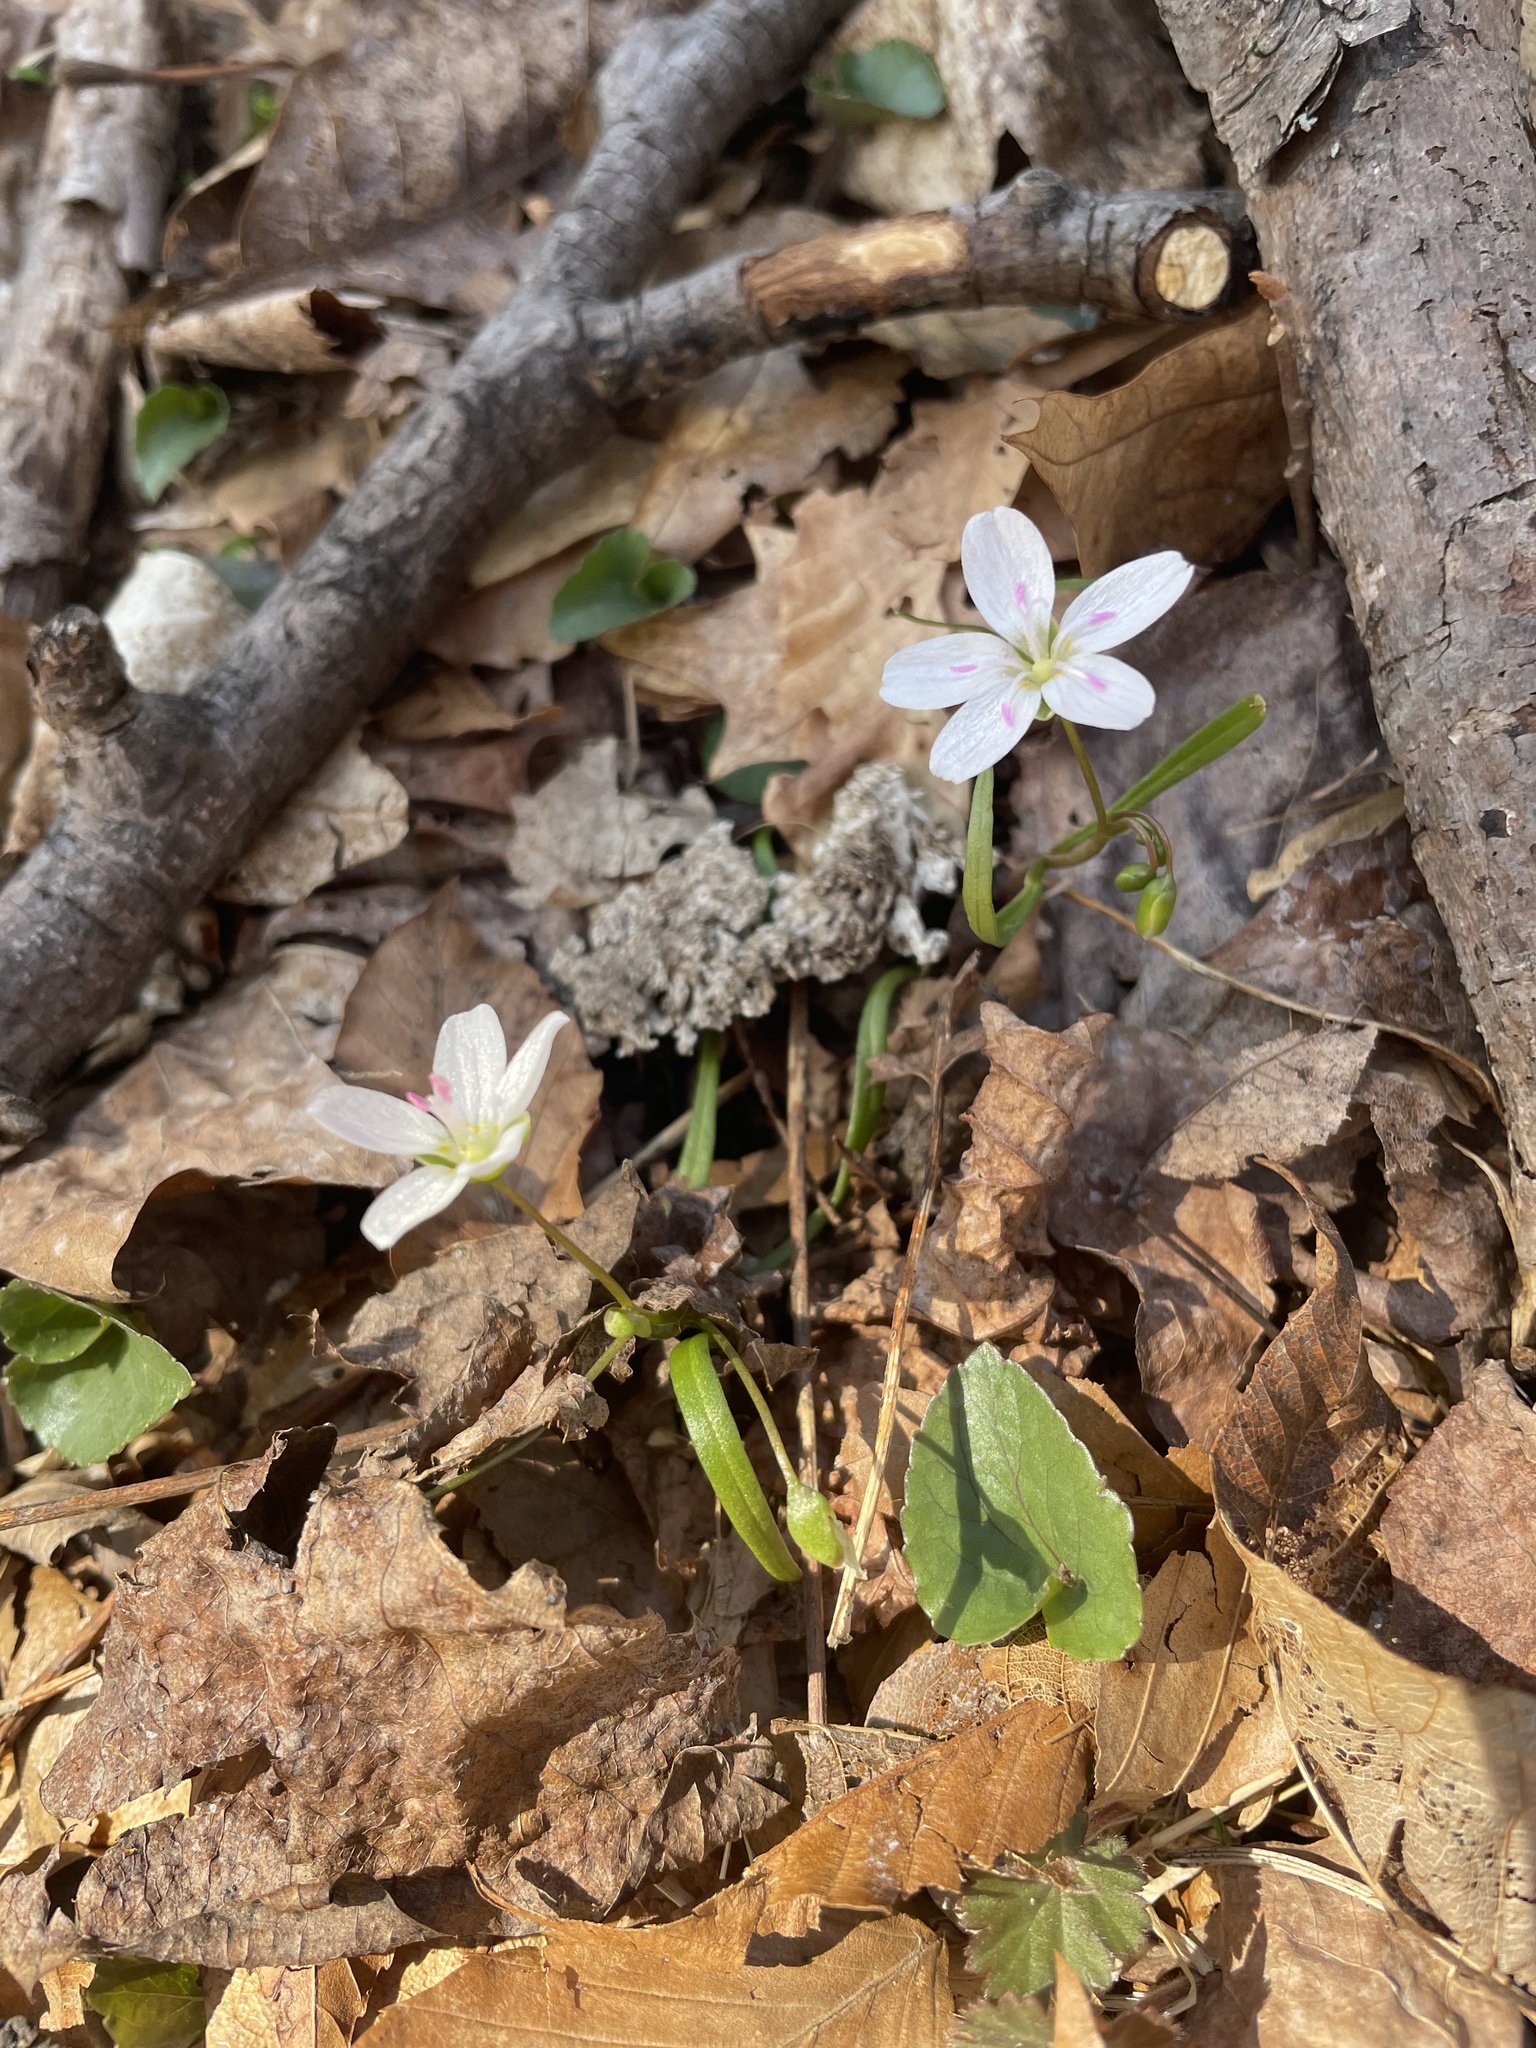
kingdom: Plantae
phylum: Tracheophyta
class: Magnoliopsida
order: Caryophyllales
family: Montiaceae
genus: Claytonia
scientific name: Claytonia virginica
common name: Virginia springbeauty
